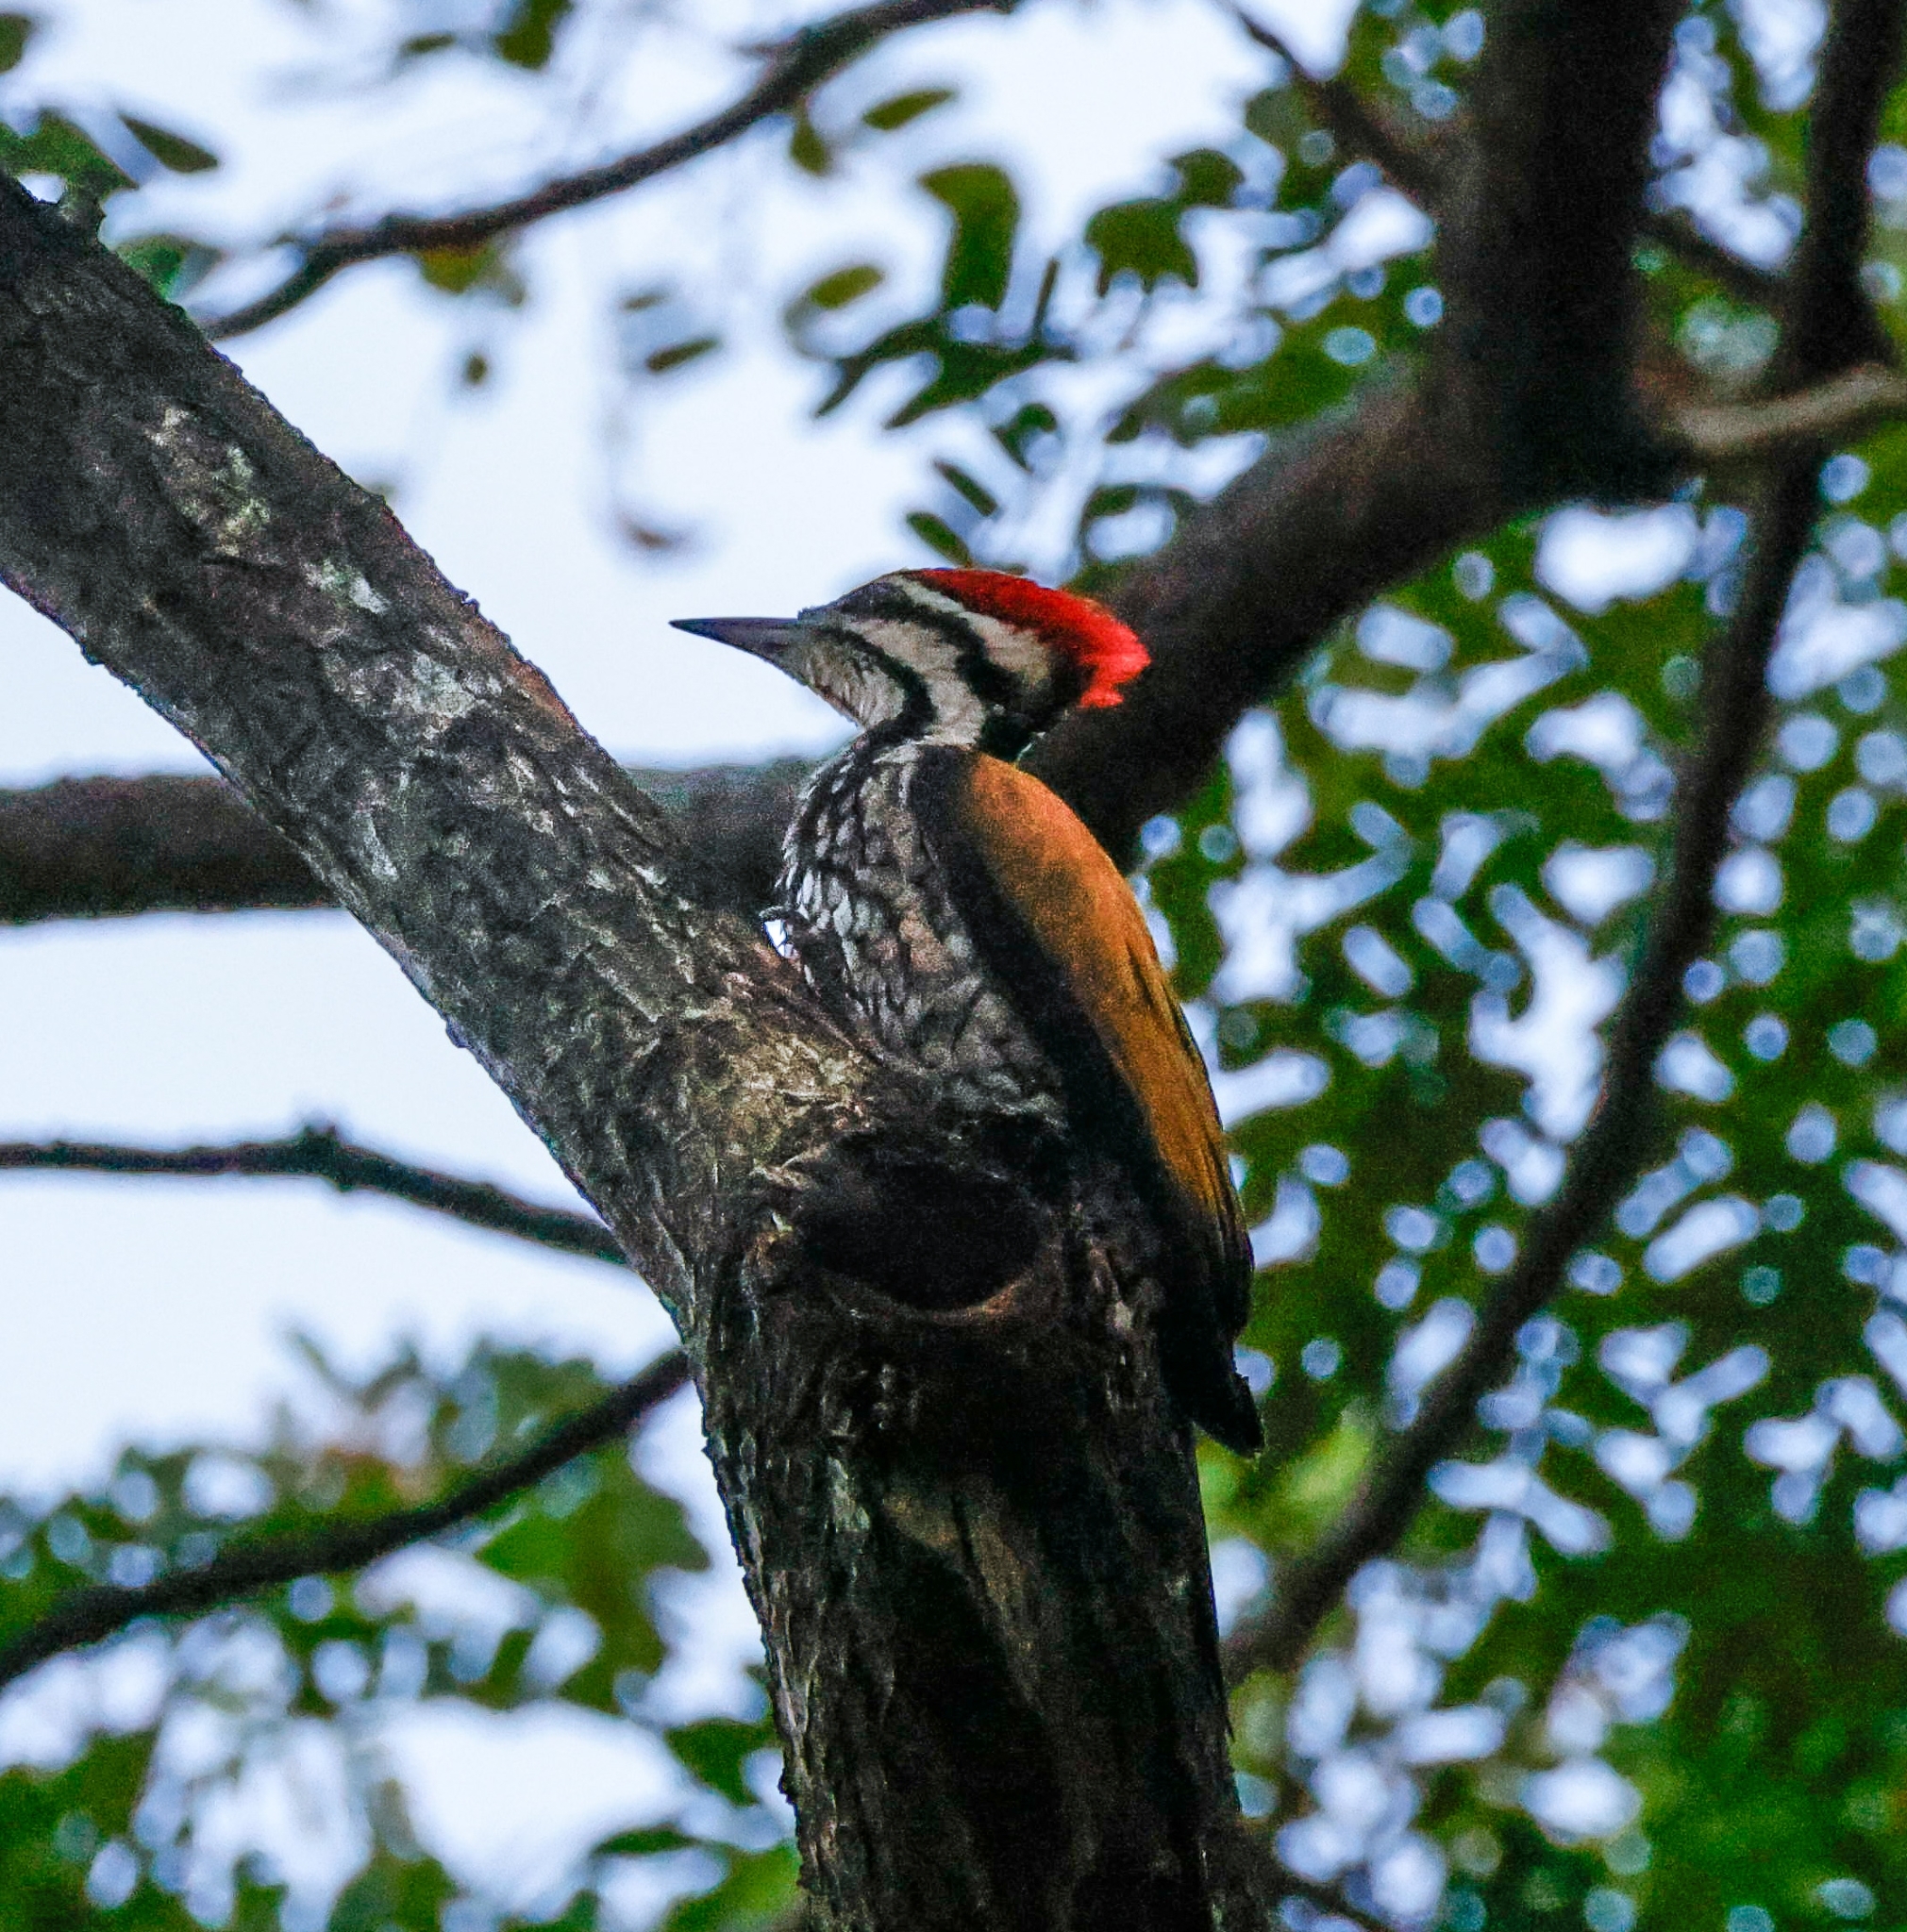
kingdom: Animalia
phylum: Chordata
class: Aves
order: Piciformes
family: Picidae
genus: Dinopium
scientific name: Dinopium javanense
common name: Common flameback
